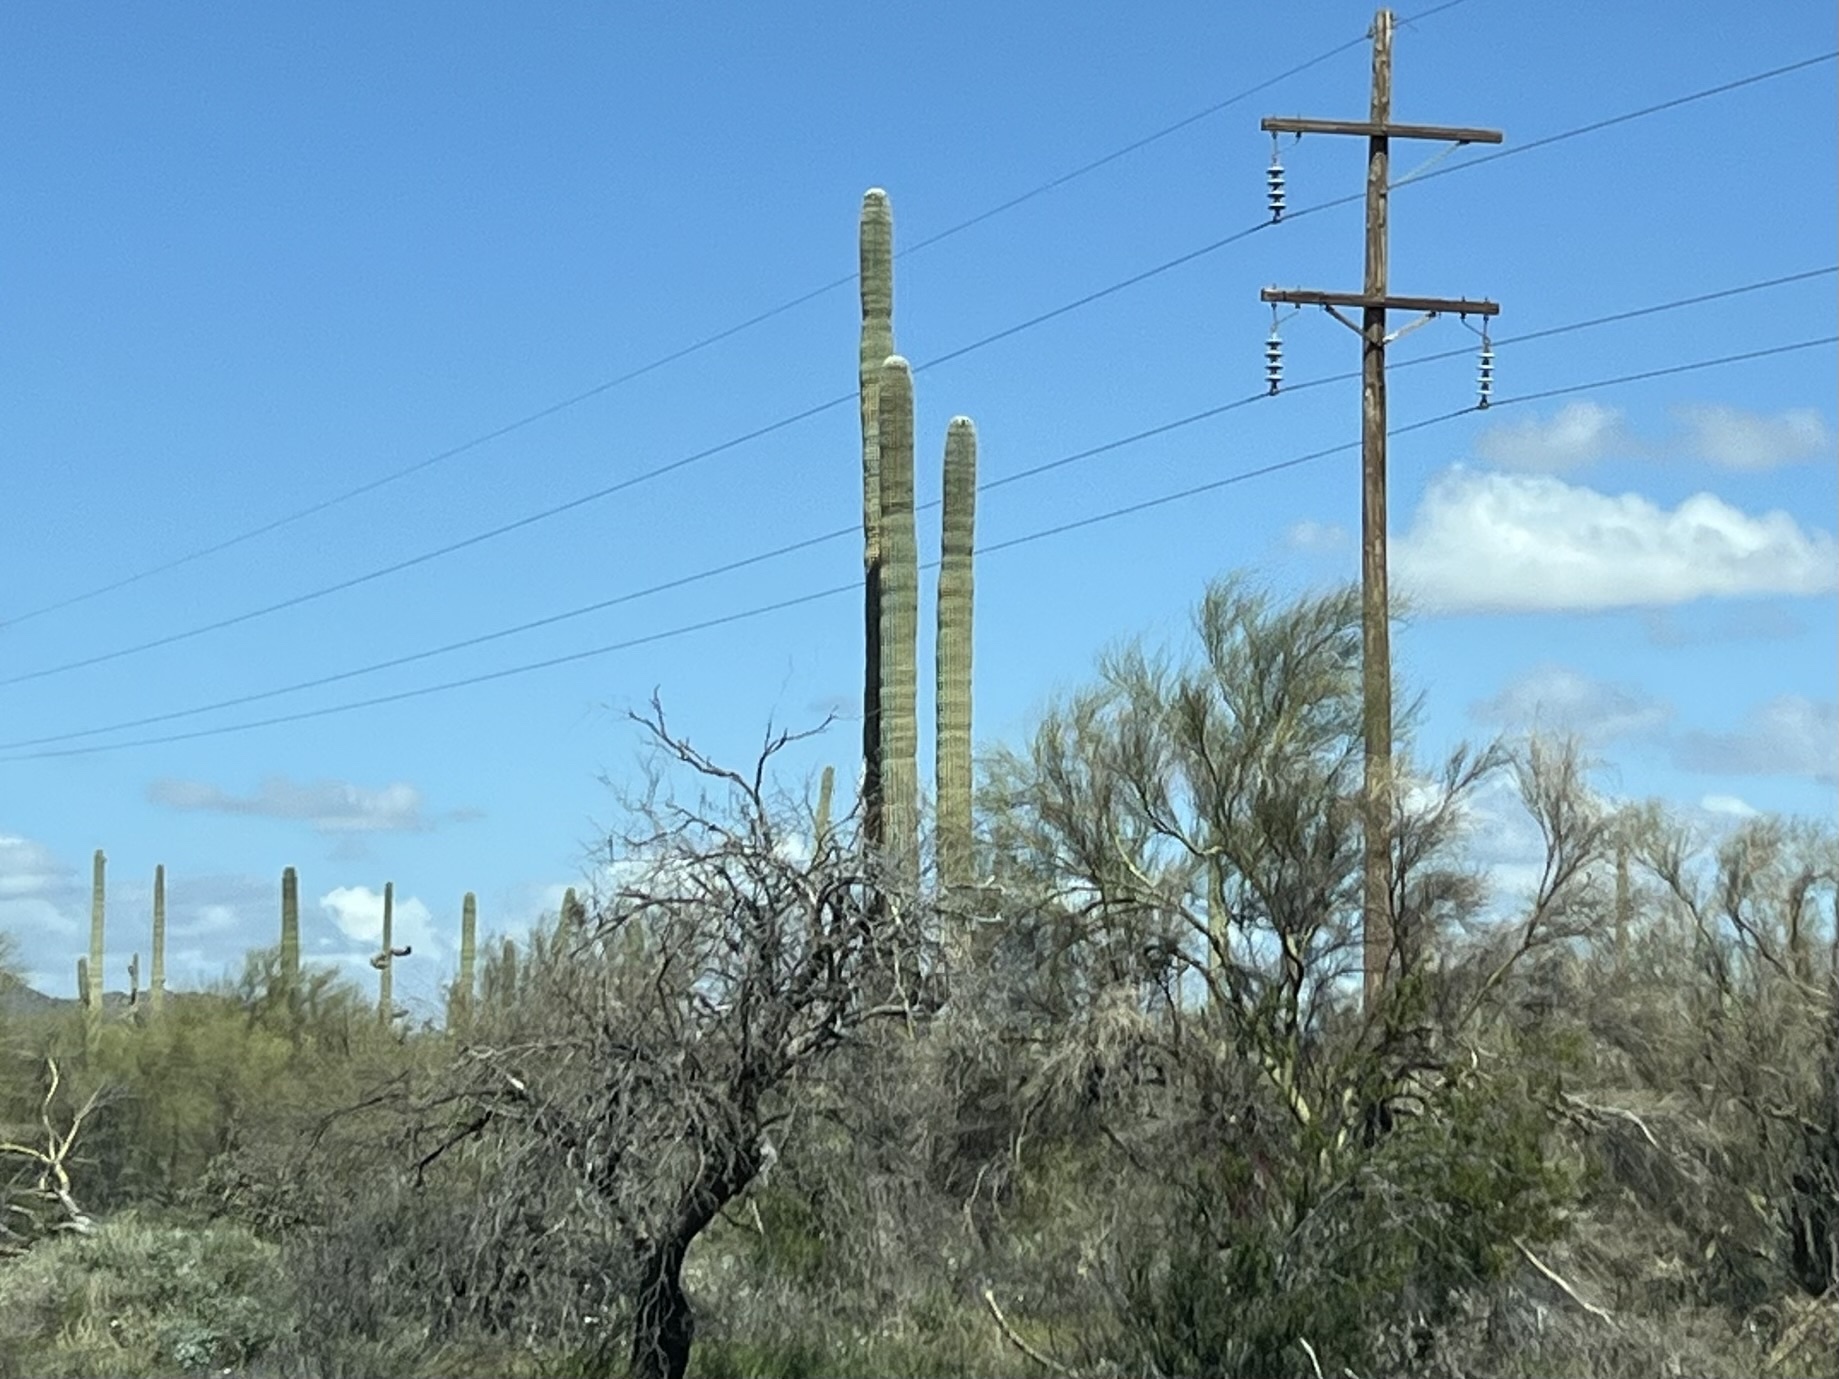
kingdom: Plantae
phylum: Tracheophyta
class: Magnoliopsida
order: Caryophyllales
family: Cactaceae
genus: Carnegiea
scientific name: Carnegiea gigantea
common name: Saguaro
